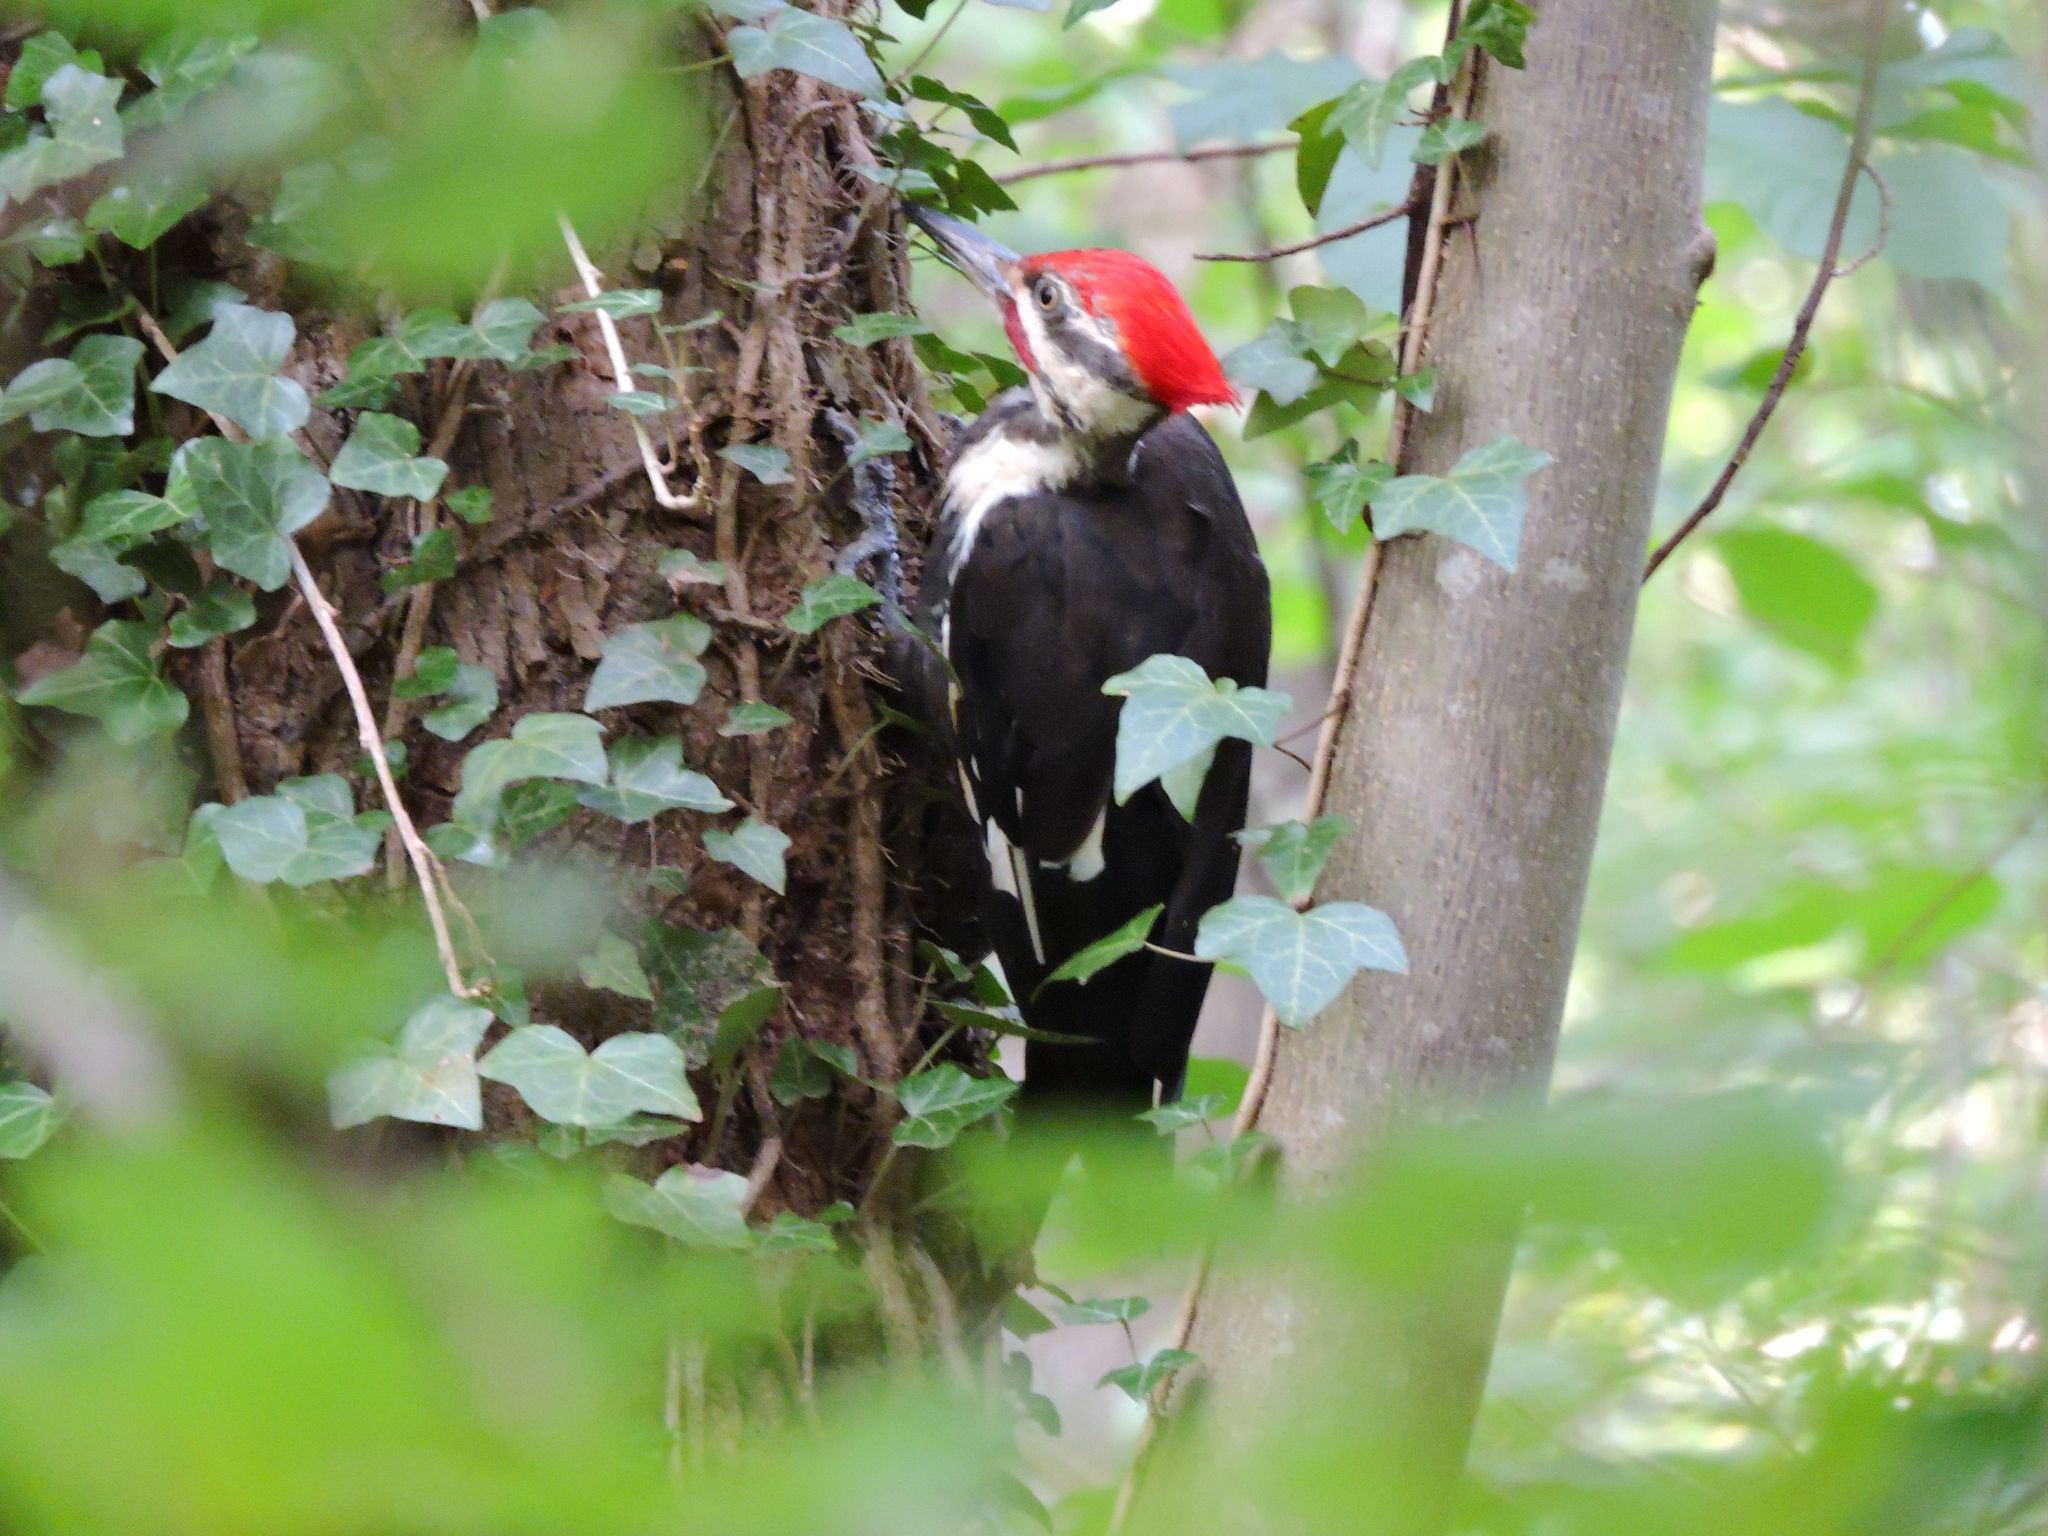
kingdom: Animalia
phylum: Chordata
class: Aves
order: Piciformes
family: Picidae
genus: Dryocopus
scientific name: Dryocopus pileatus
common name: Pileated woodpecker
